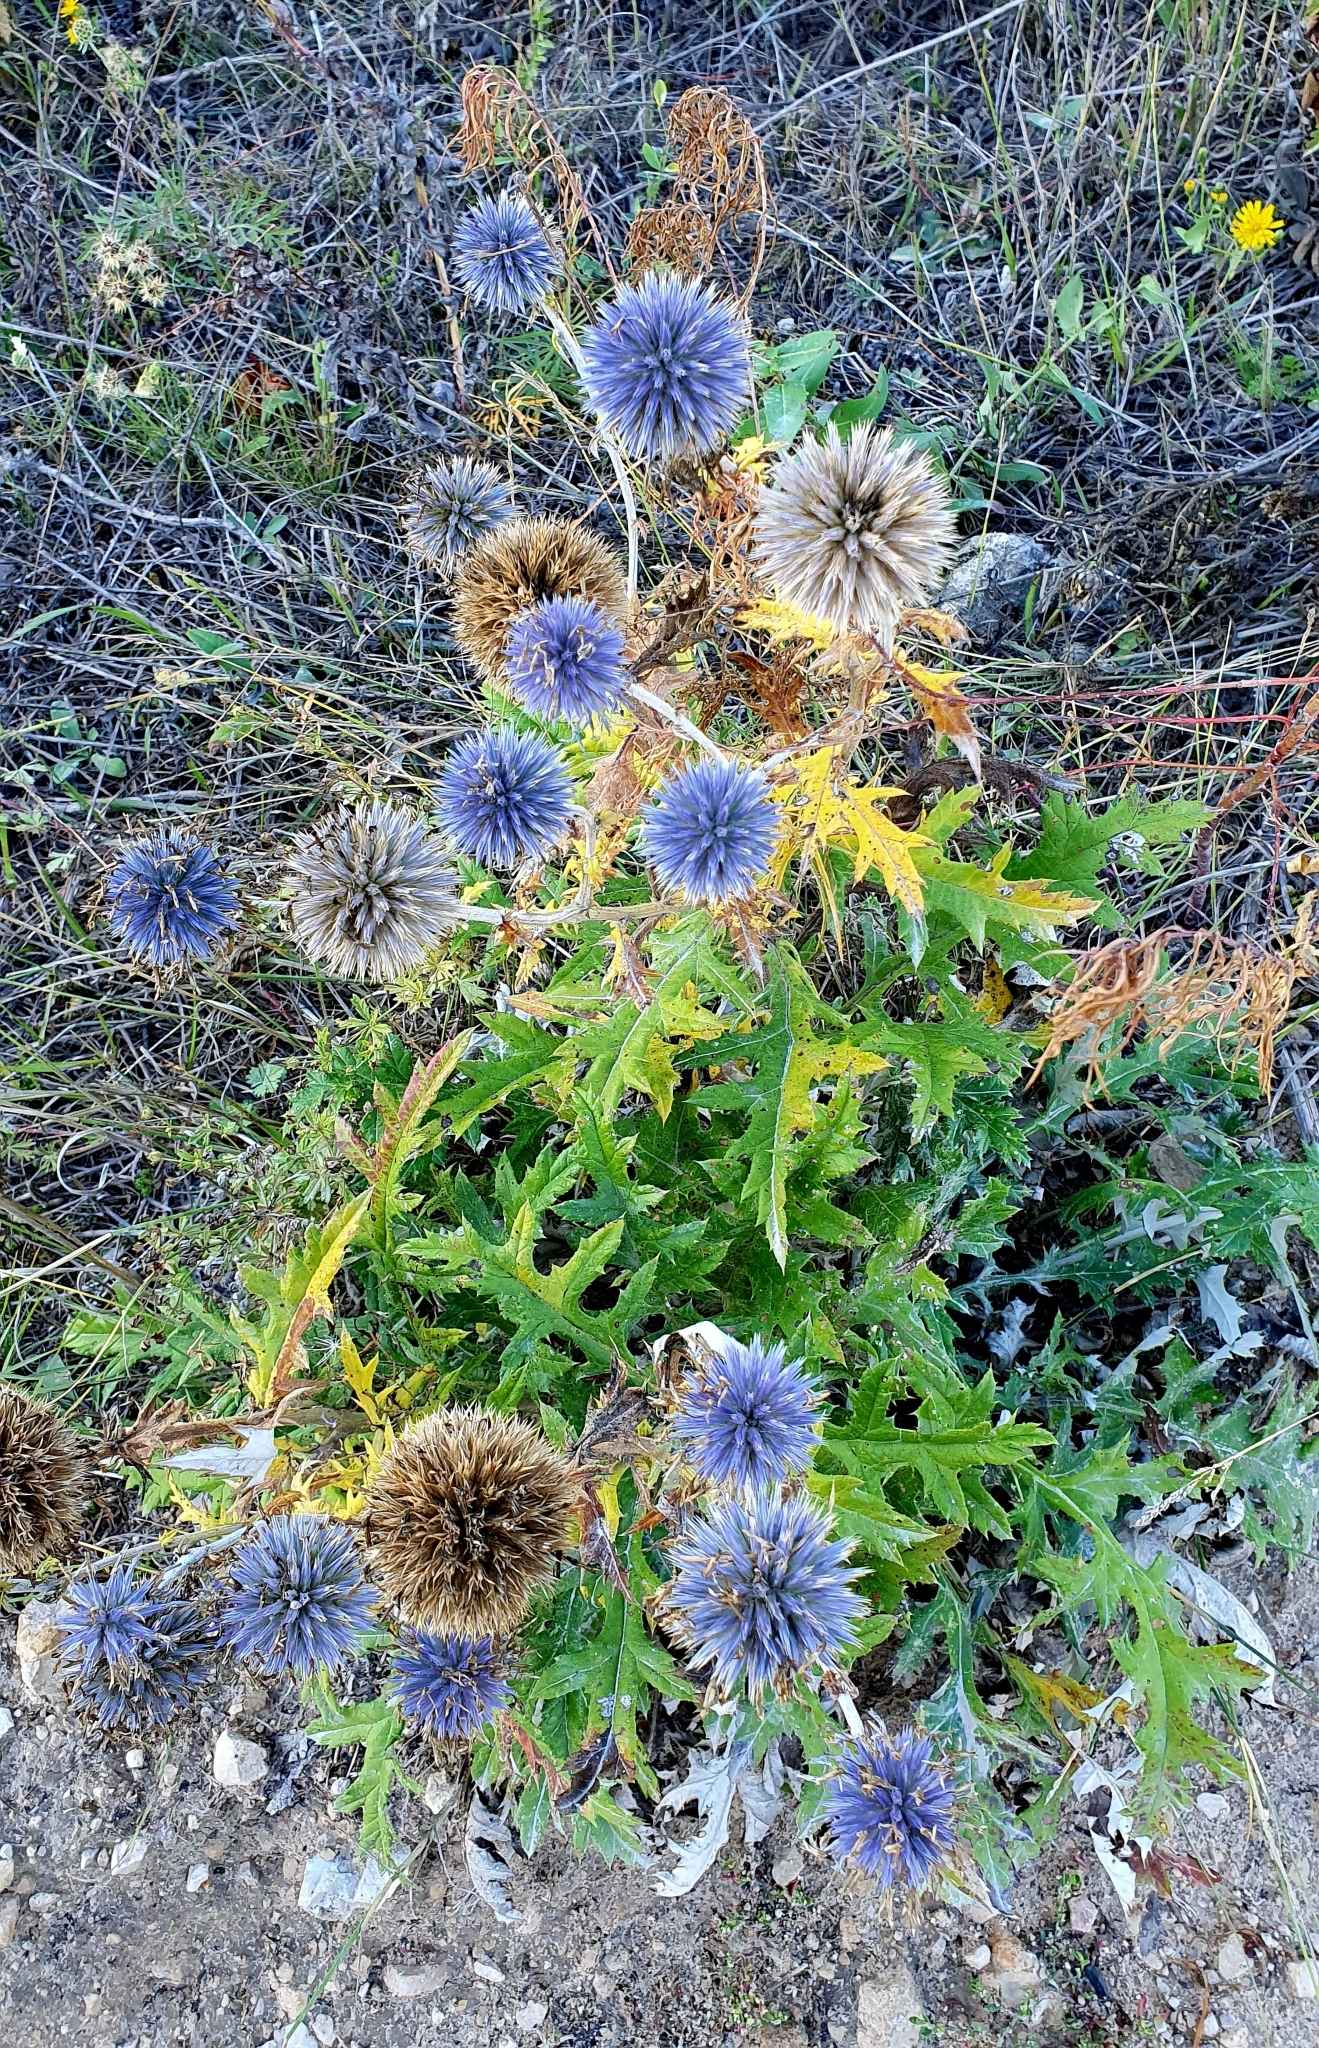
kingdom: Plantae
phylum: Tracheophyta
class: Magnoliopsida
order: Asterales
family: Asteraceae
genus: Echinops
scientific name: Echinops saksonovii
